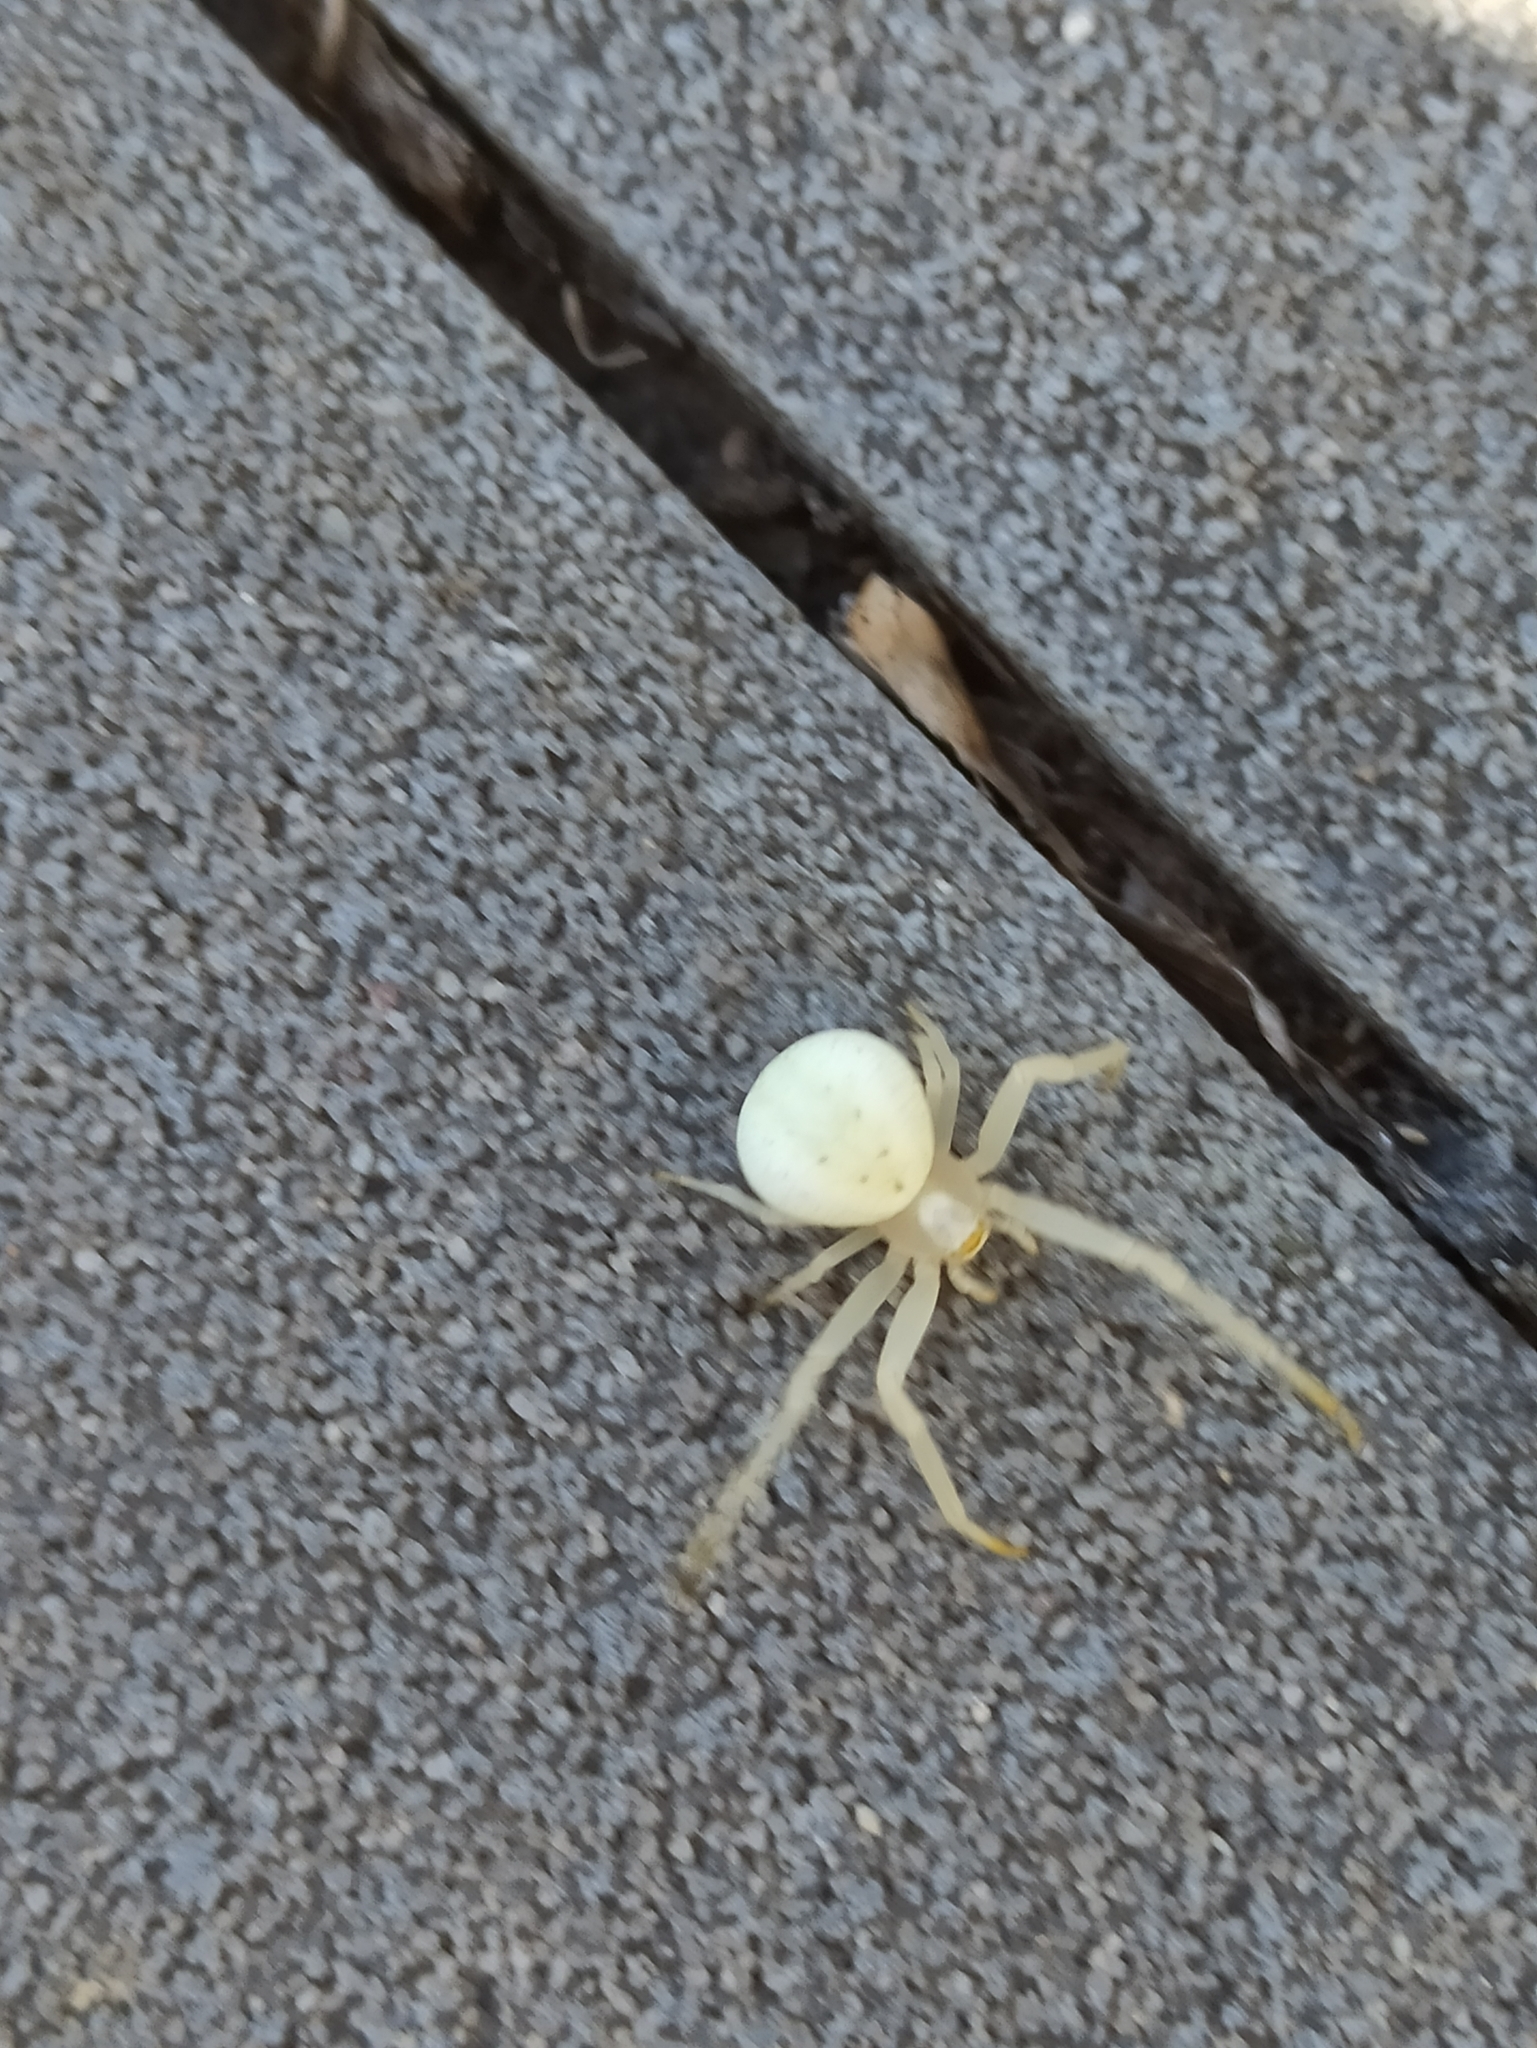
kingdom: Animalia
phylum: Arthropoda
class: Arachnida
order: Araneae
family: Thomisidae
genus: Misumena
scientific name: Misumena vatia
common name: Goldenrod crab spider
